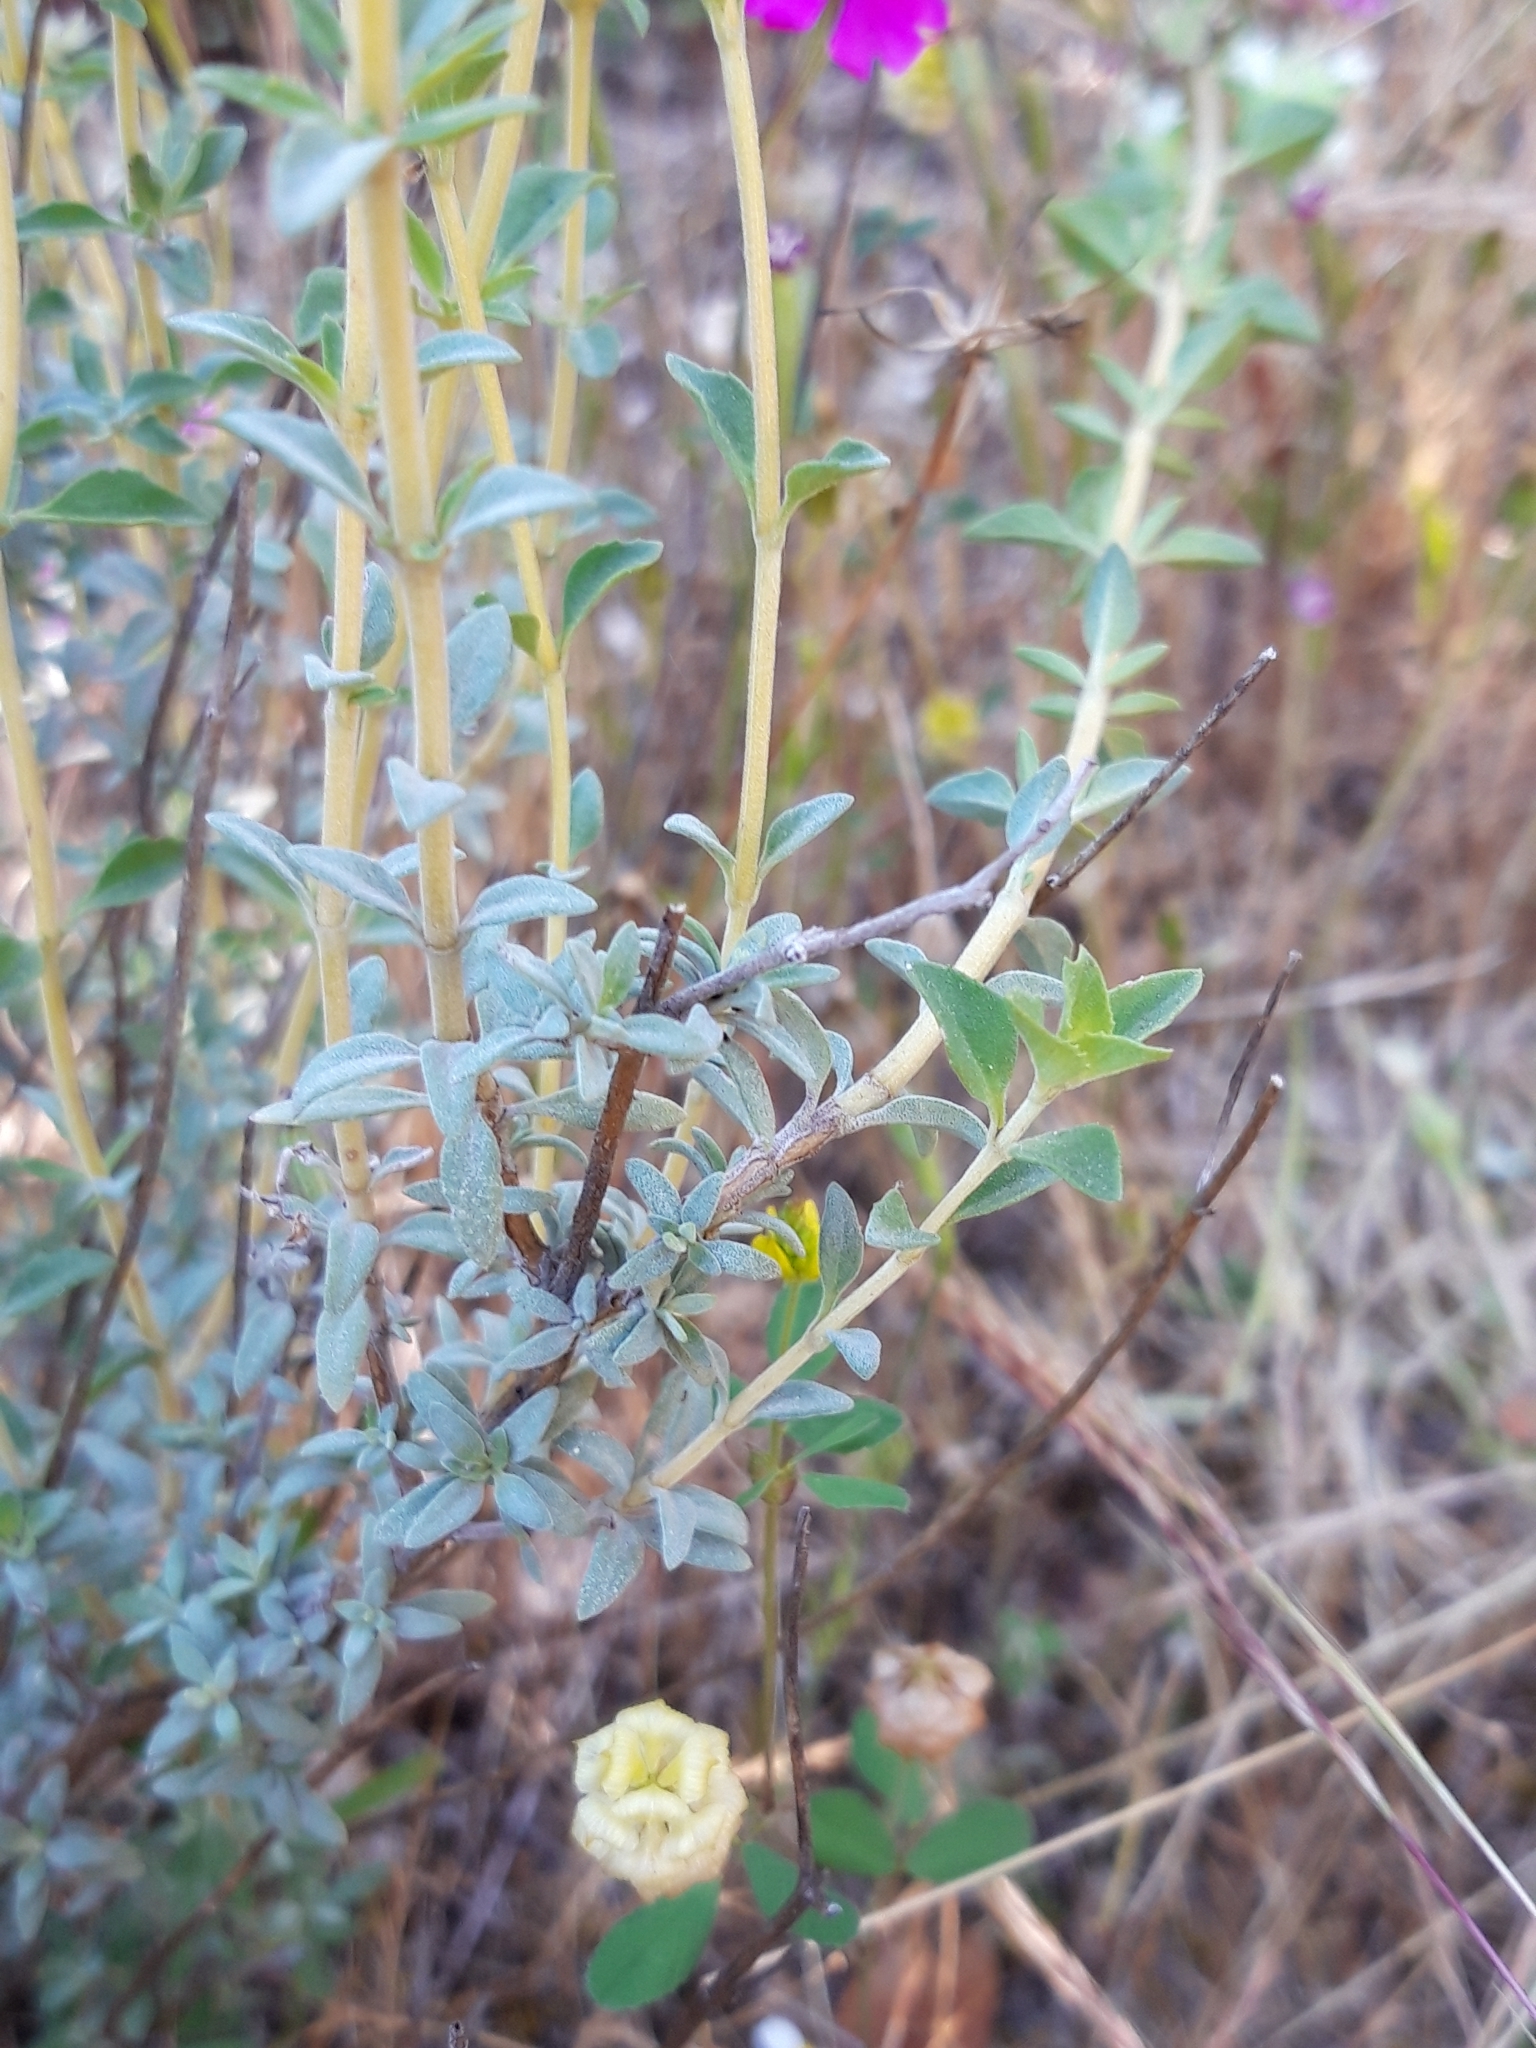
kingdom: Plantae
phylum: Tracheophyta
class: Magnoliopsida
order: Lamiales
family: Lamiaceae
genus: Thymus
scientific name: Thymus mastichina
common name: Mastic thyme
